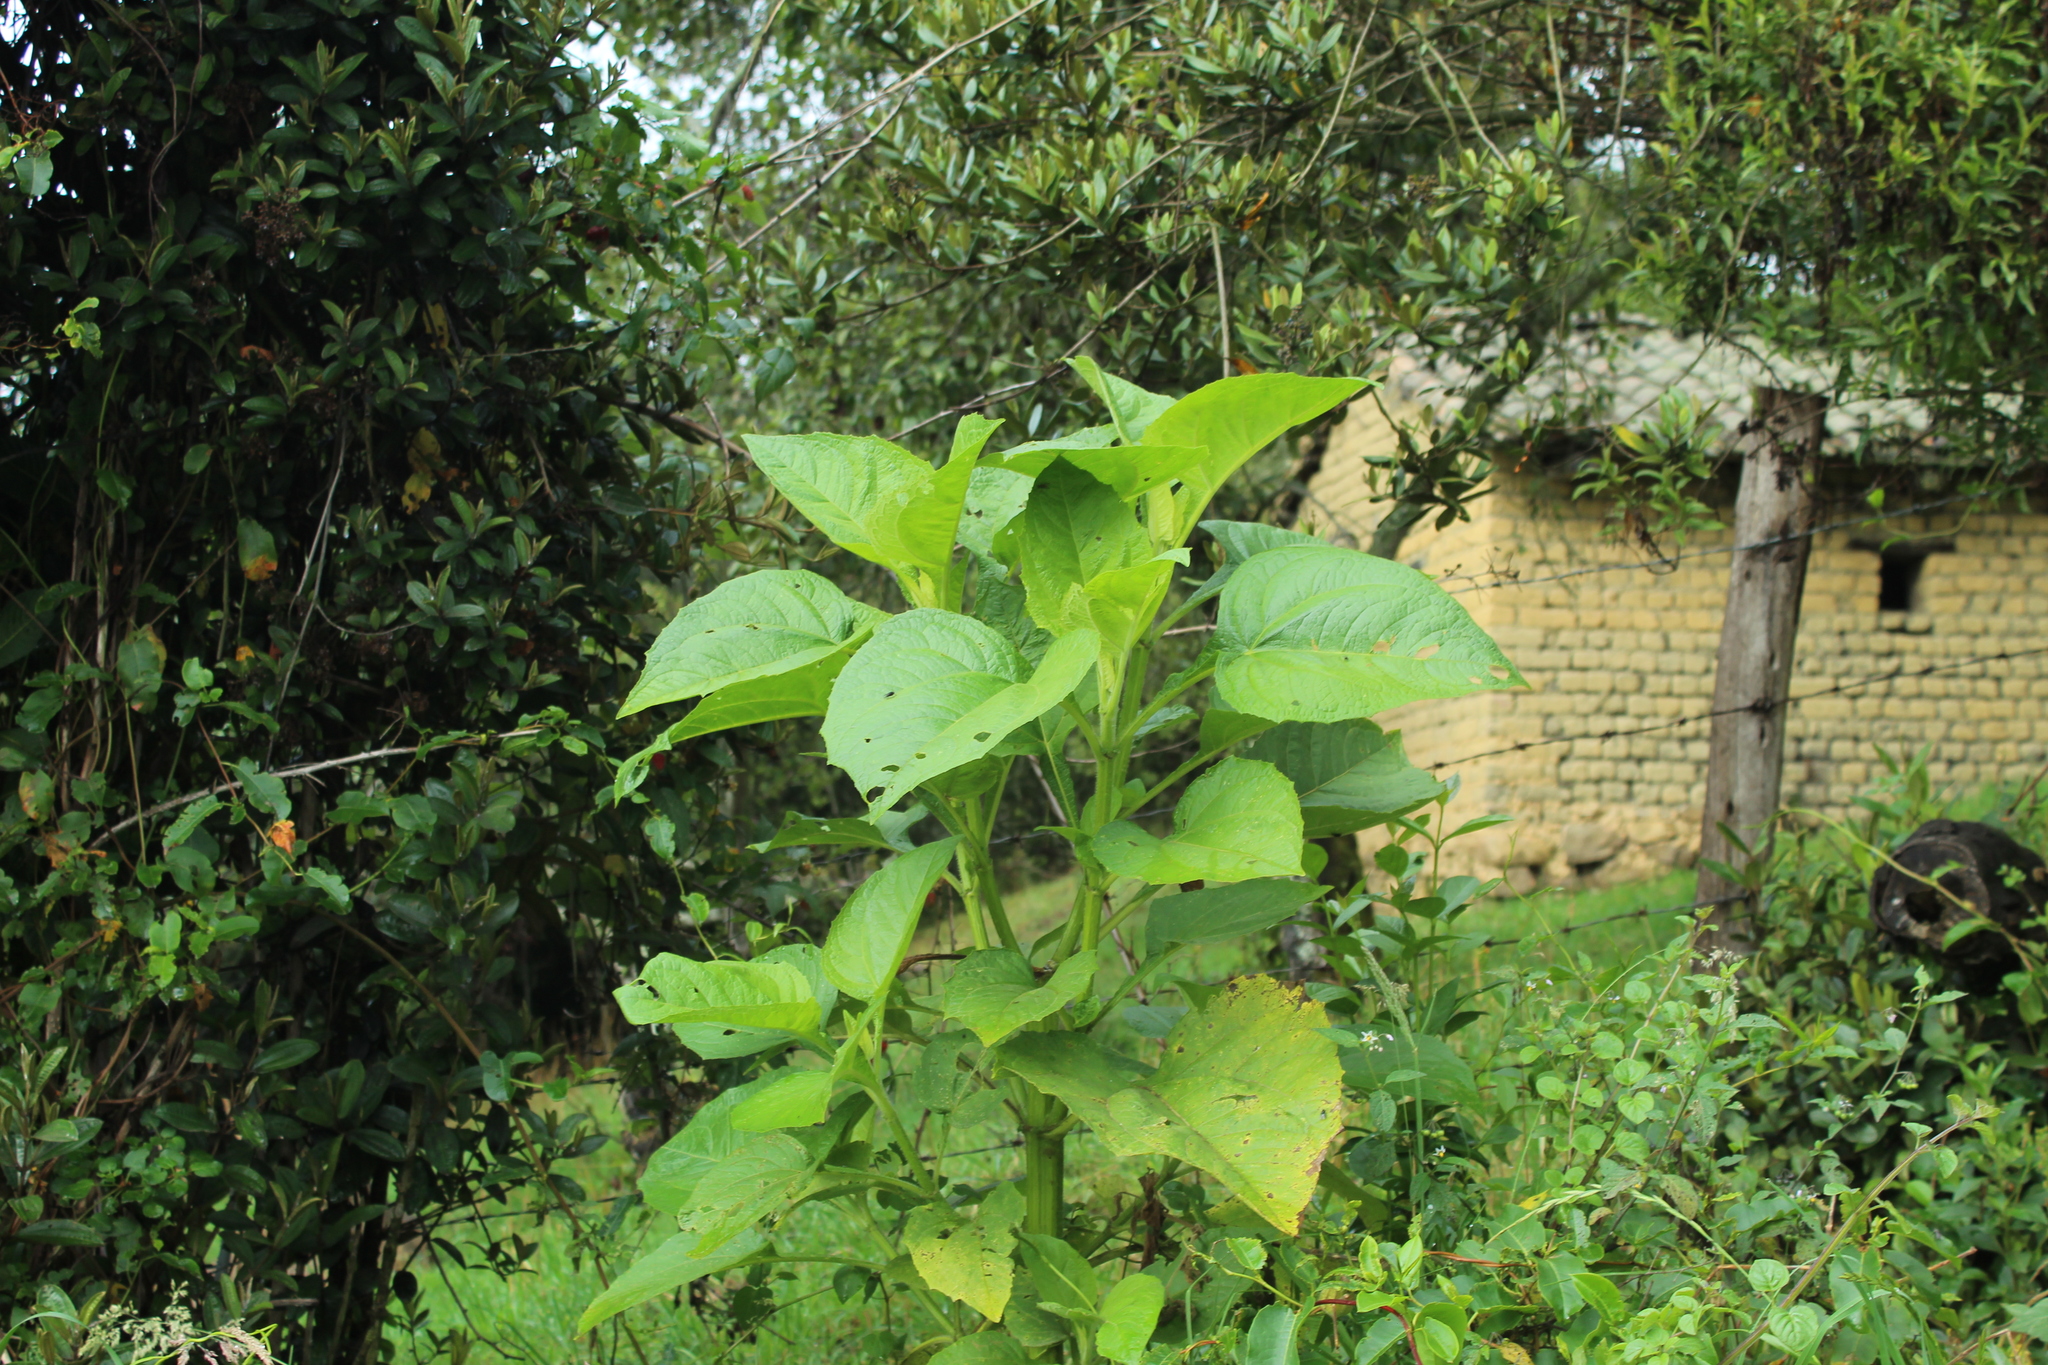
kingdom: Plantae
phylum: Tracheophyta
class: Magnoliopsida
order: Asterales
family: Asteraceae
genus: Smallanthus
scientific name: Smallanthus pyramidalis
